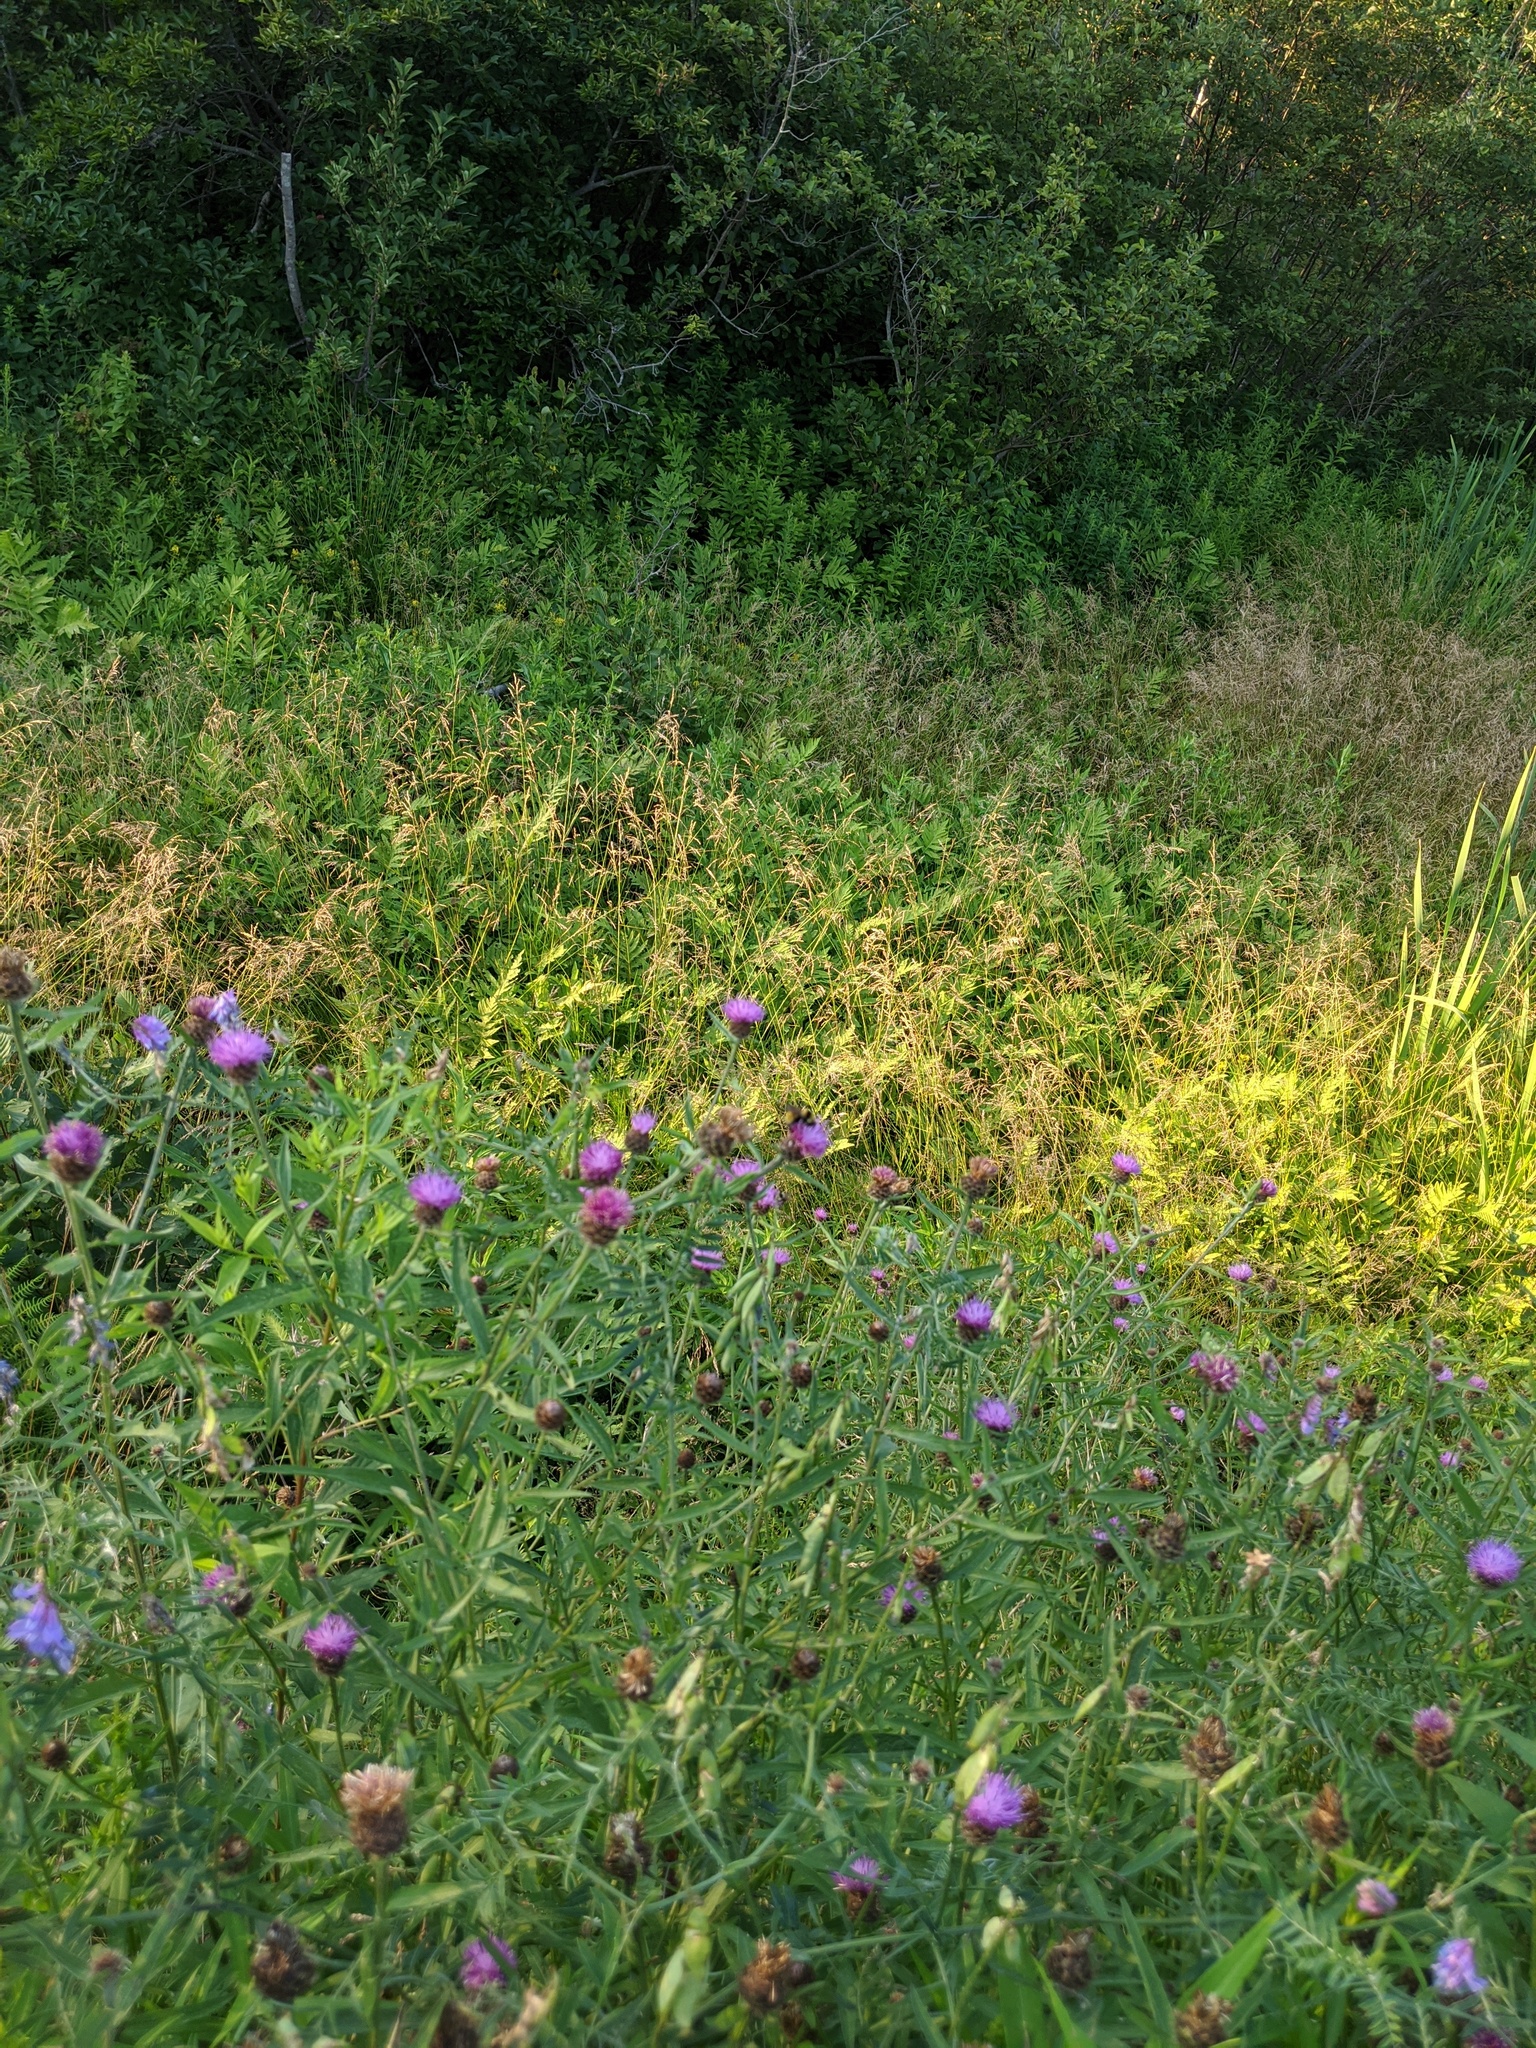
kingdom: Plantae
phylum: Tracheophyta
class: Magnoliopsida
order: Asterales
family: Asteraceae
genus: Centaurea
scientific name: Centaurea nigra
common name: Lesser knapweed
